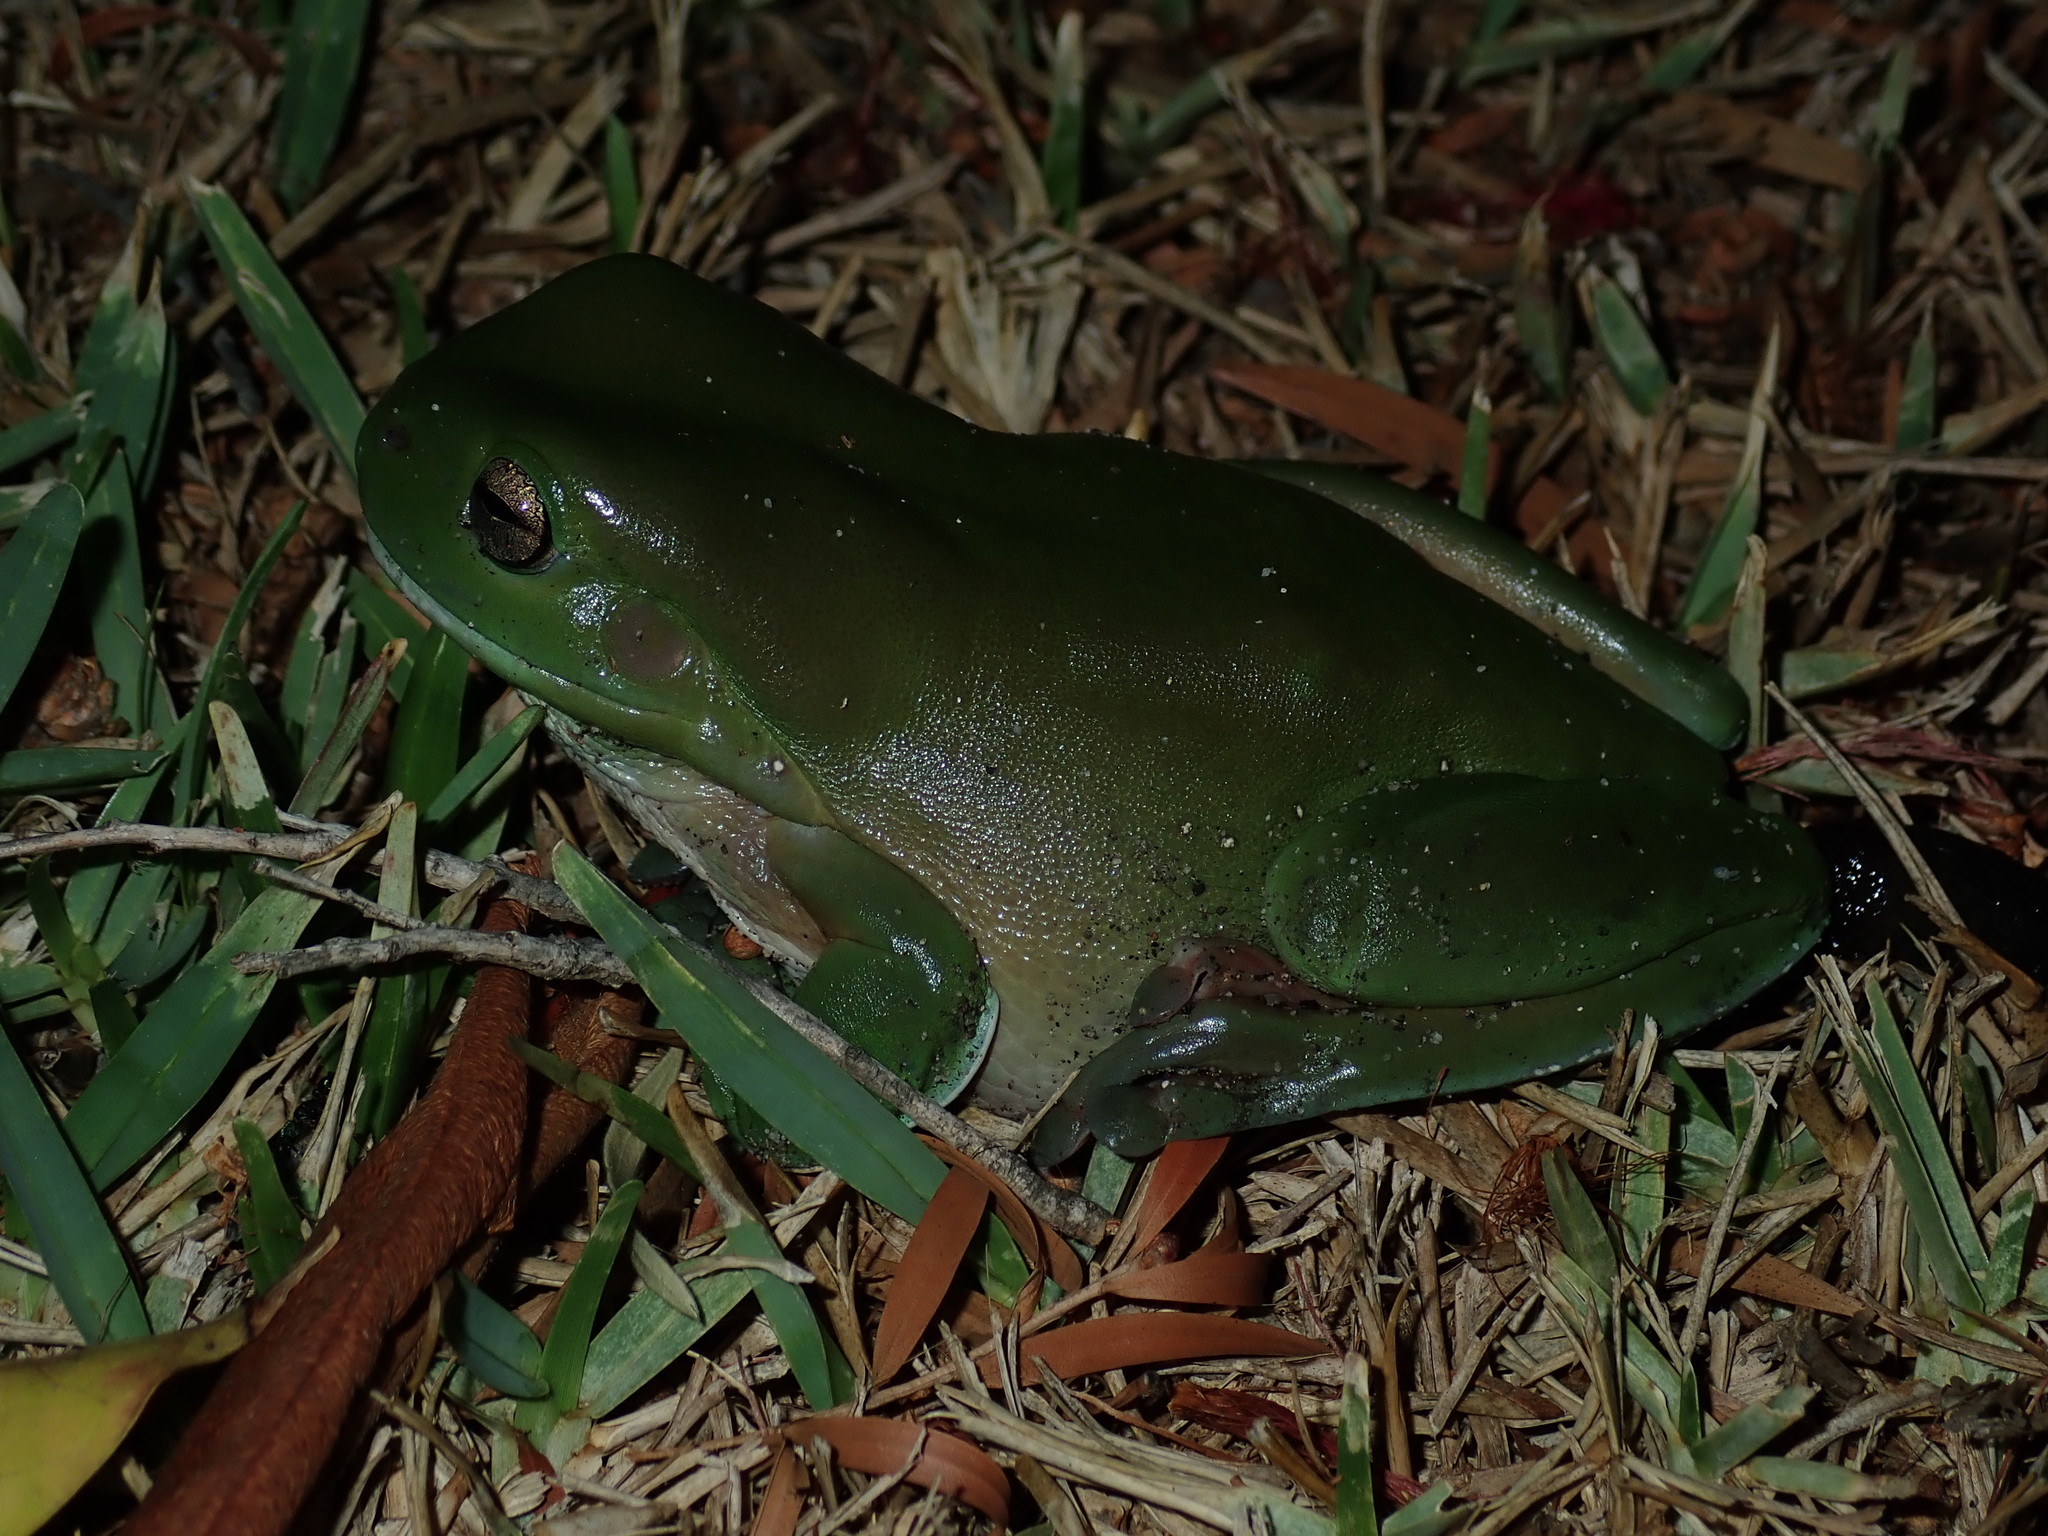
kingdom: Animalia
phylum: Chordata
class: Amphibia
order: Anura
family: Pelodryadidae
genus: Ranoidea
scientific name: Ranoidea caerulea
